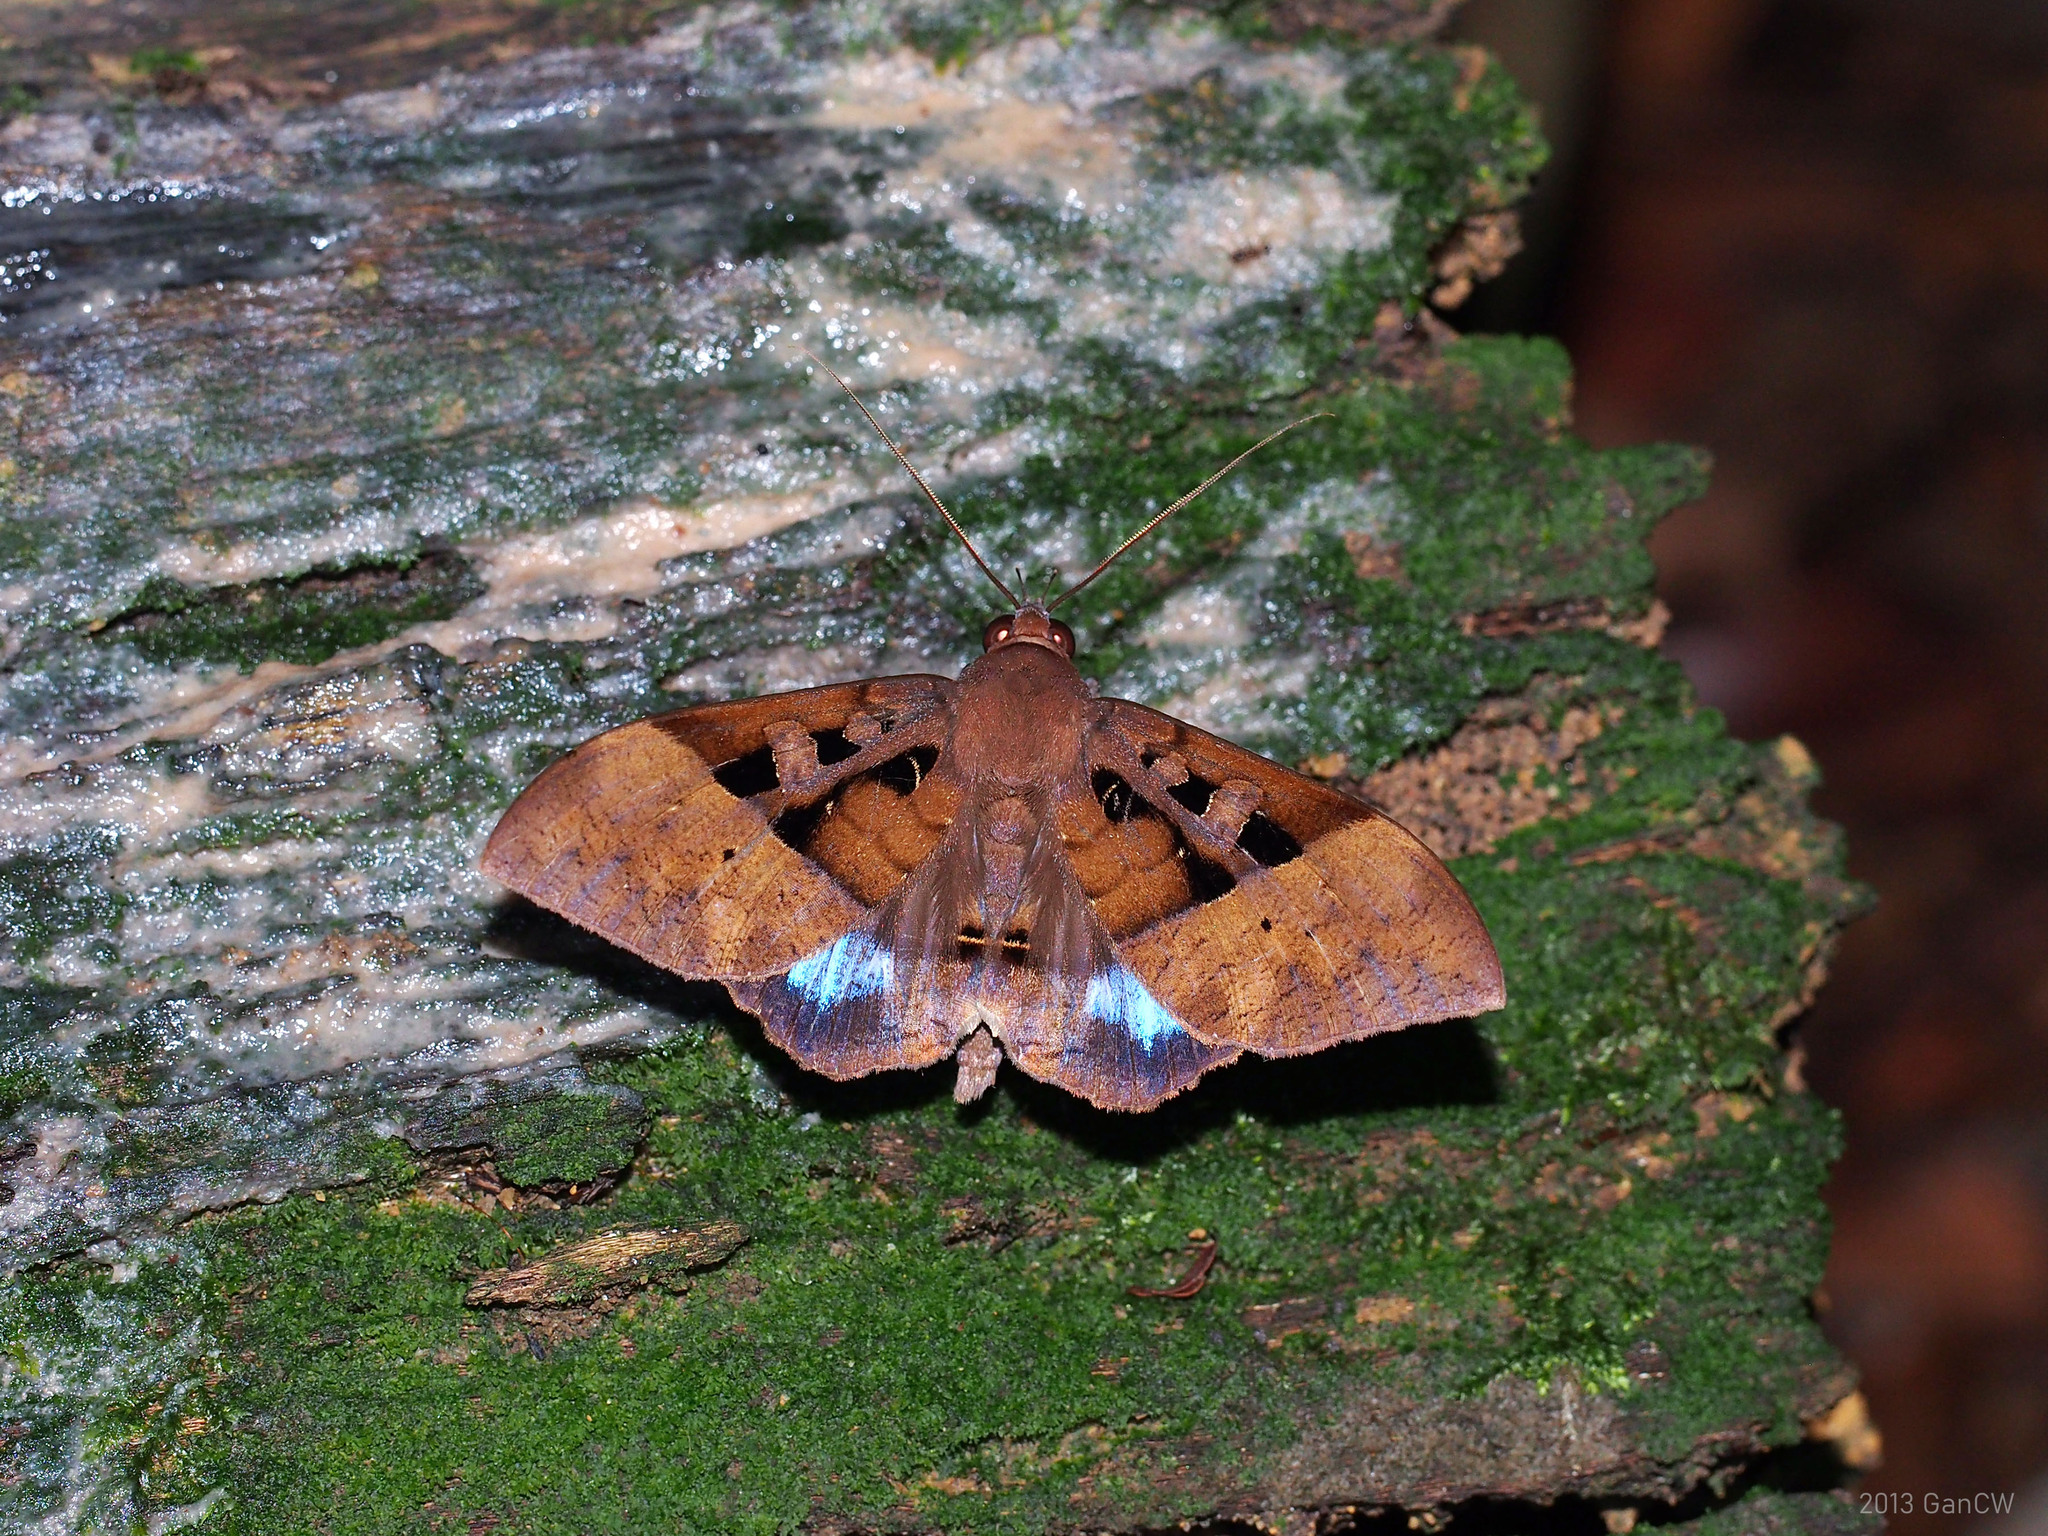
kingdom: Animalia
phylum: Arthropoda
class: Insecta
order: Lepidoptera
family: Erebidae
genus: Ischyja
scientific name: Ischyja marapok
